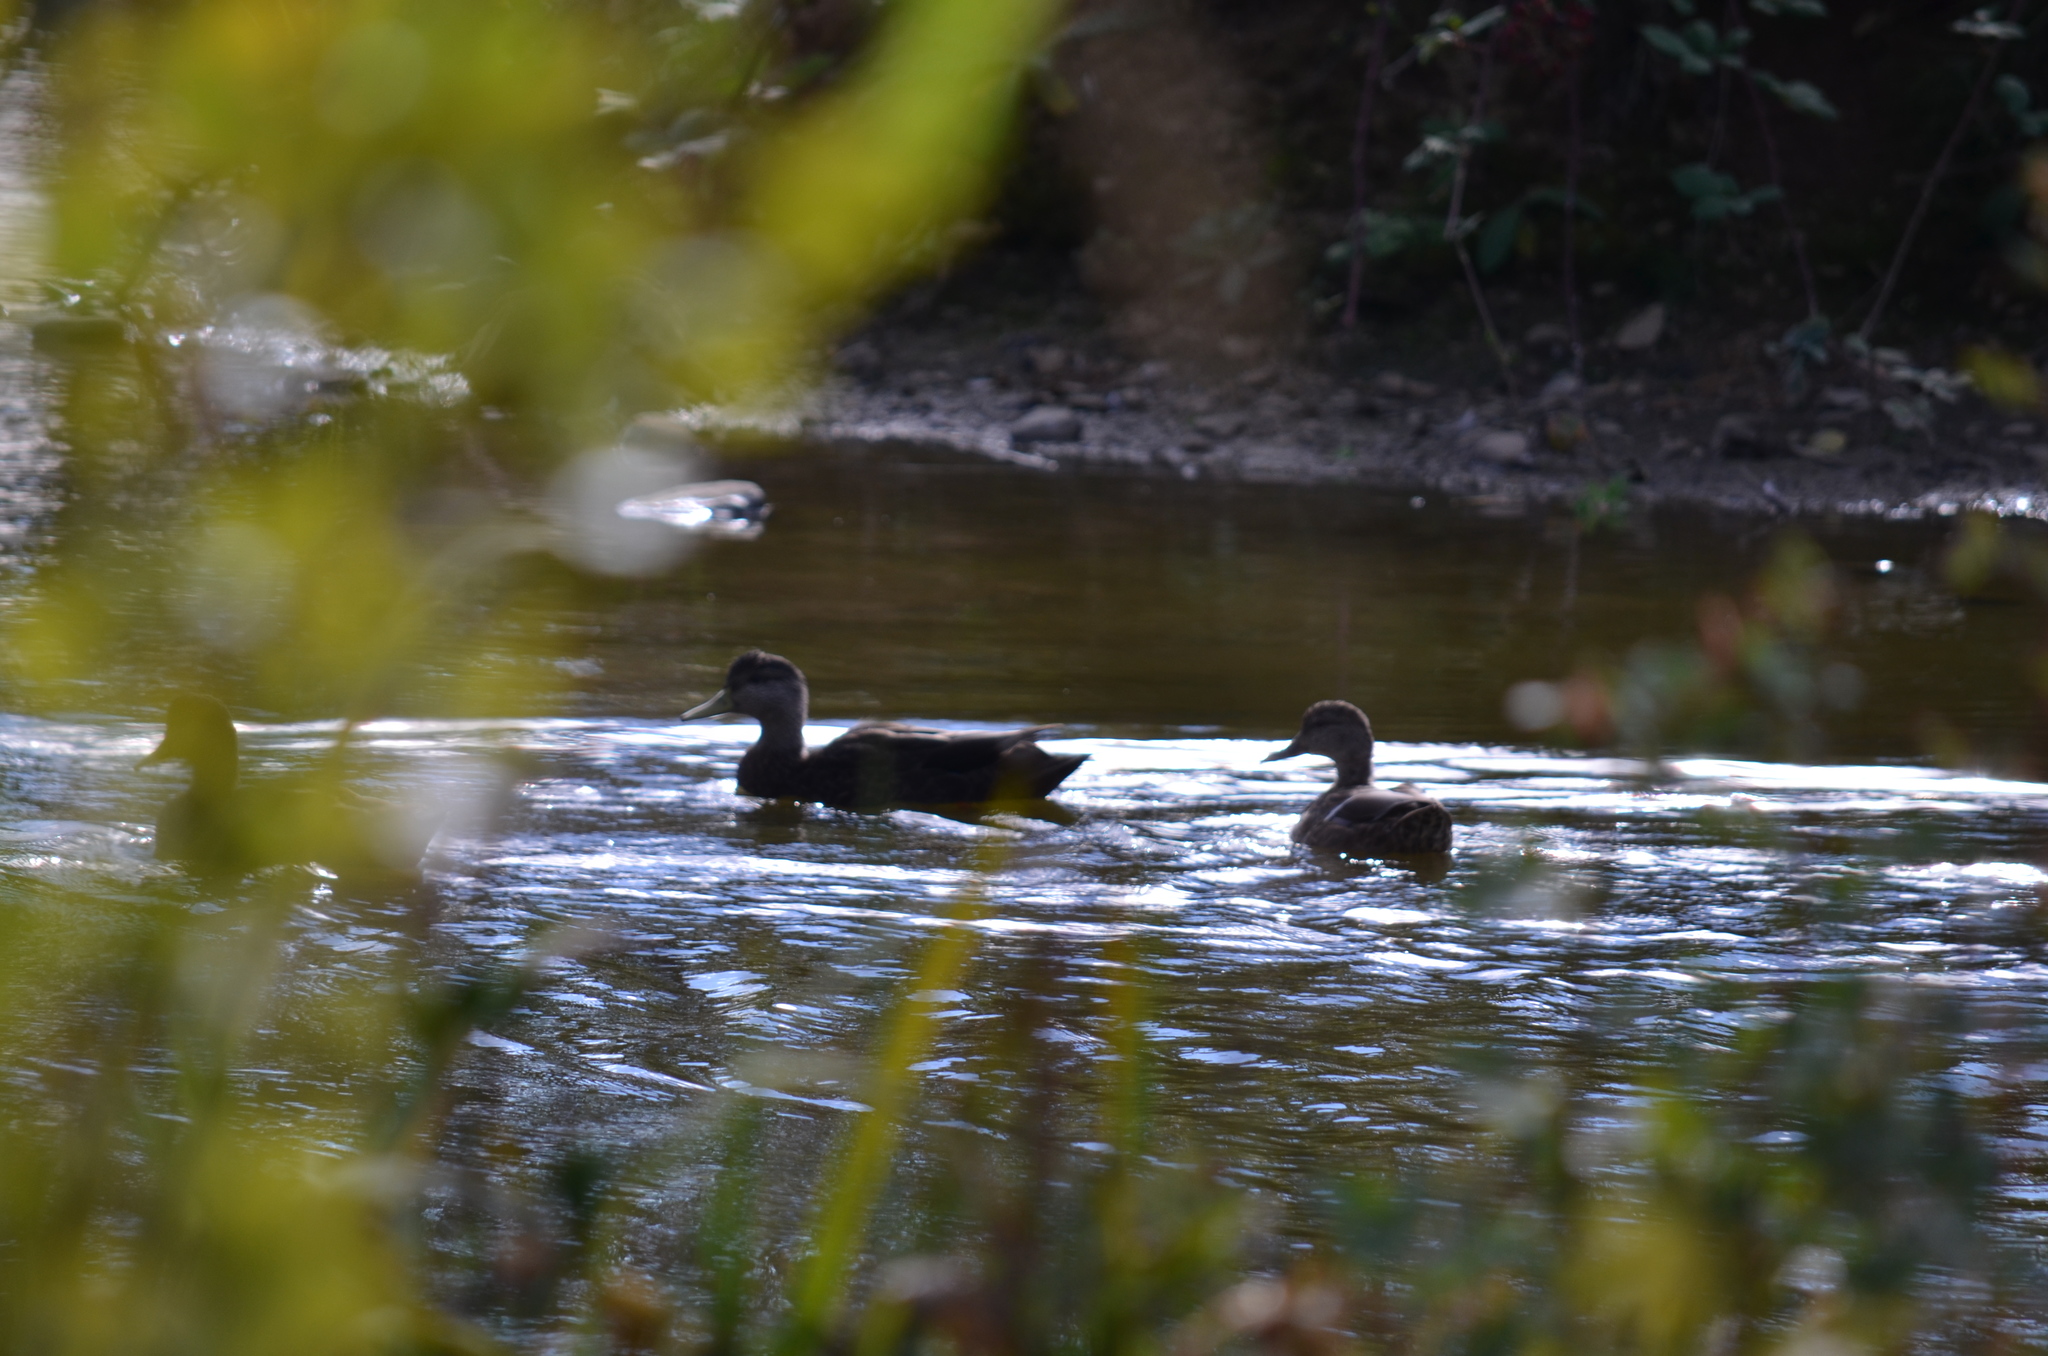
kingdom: Animalia
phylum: Chordata
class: Aves
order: Anseriformes
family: Anatidae
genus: Anas
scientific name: Anas rubripes
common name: American black duck
